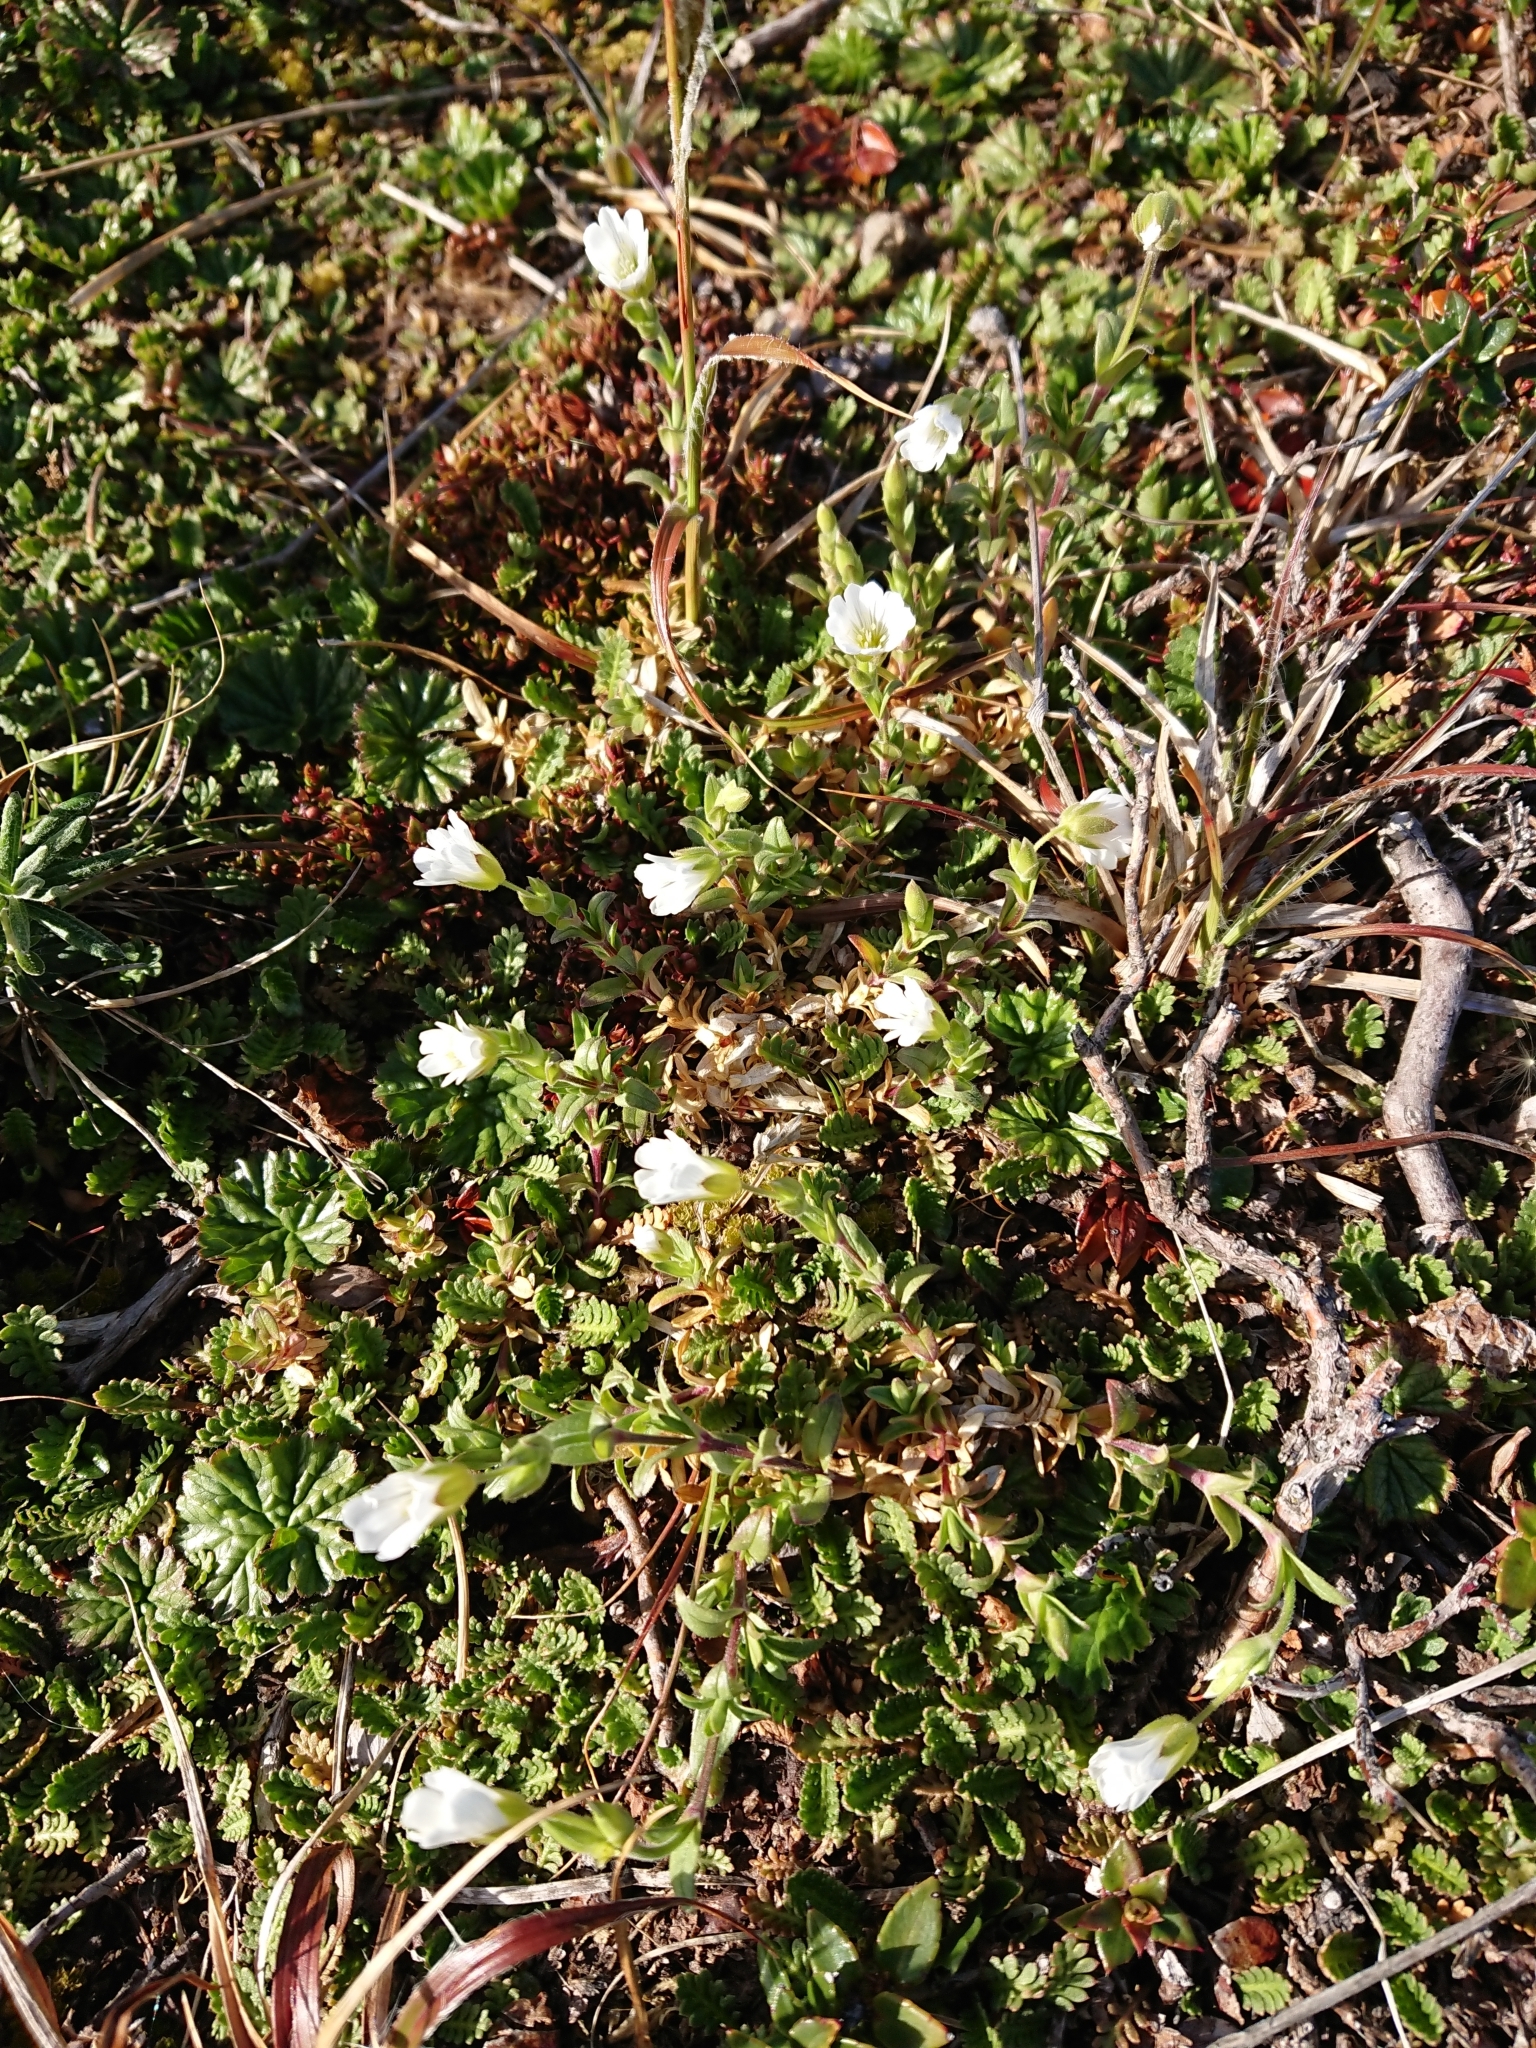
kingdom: Plantae
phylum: Tracheophyta
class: Magnoliopsida
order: Caryophyllales
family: Caryophyllaceae
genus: Cerastium
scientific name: Cerastium arvense
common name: Field mouse-ear
